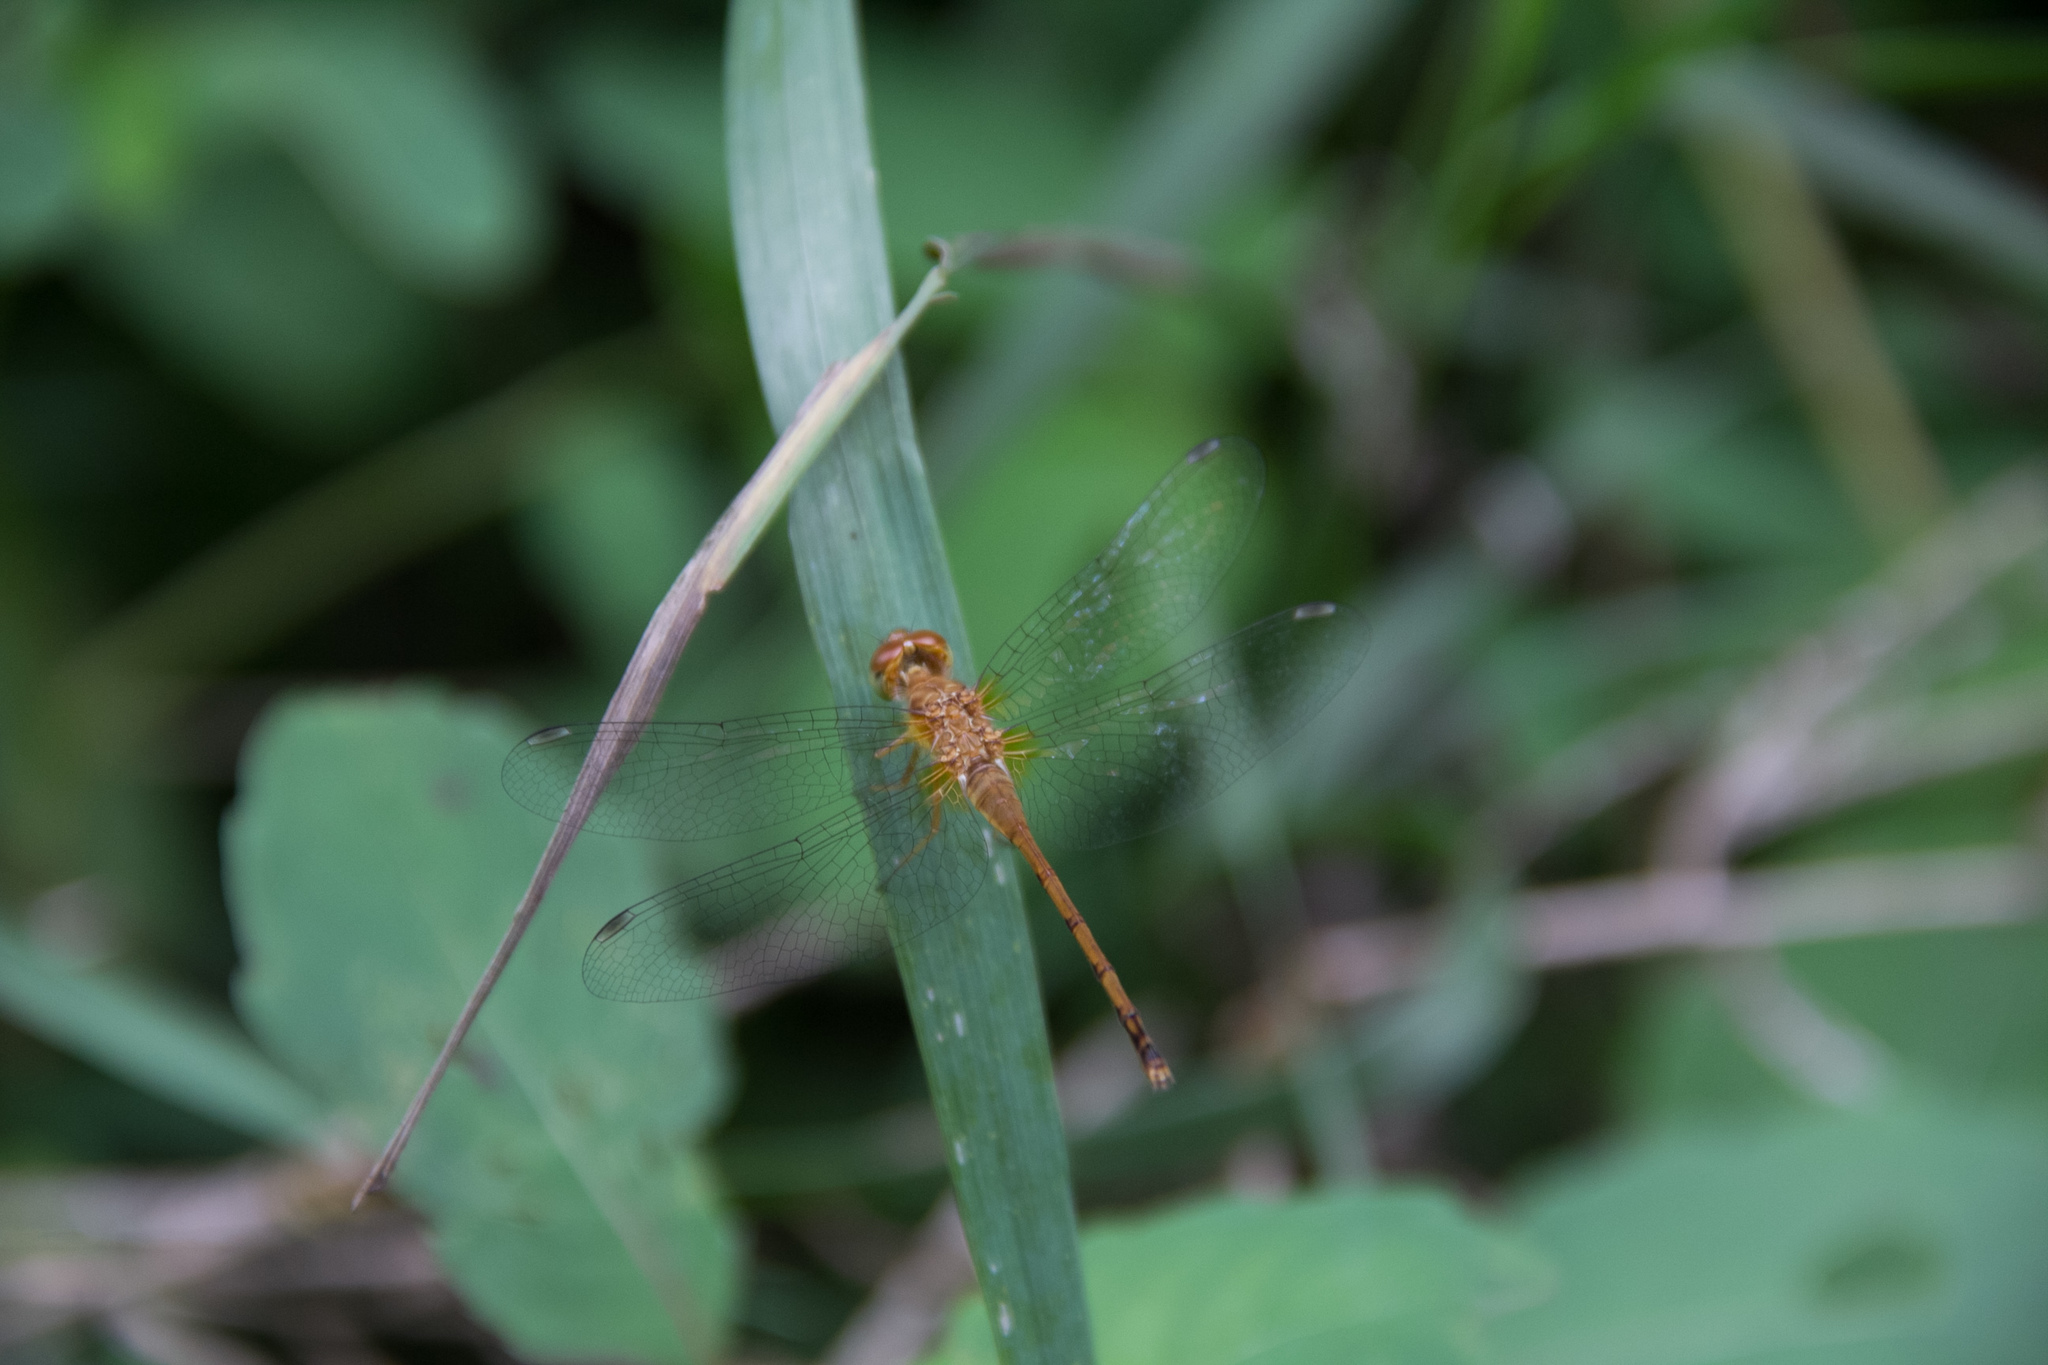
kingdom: Animalia
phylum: Arthropoda
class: Insecta
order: Odonata
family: Libellulidae
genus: Sympetrum
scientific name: Sympetrum vicinum
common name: Autumn meadowhawk
